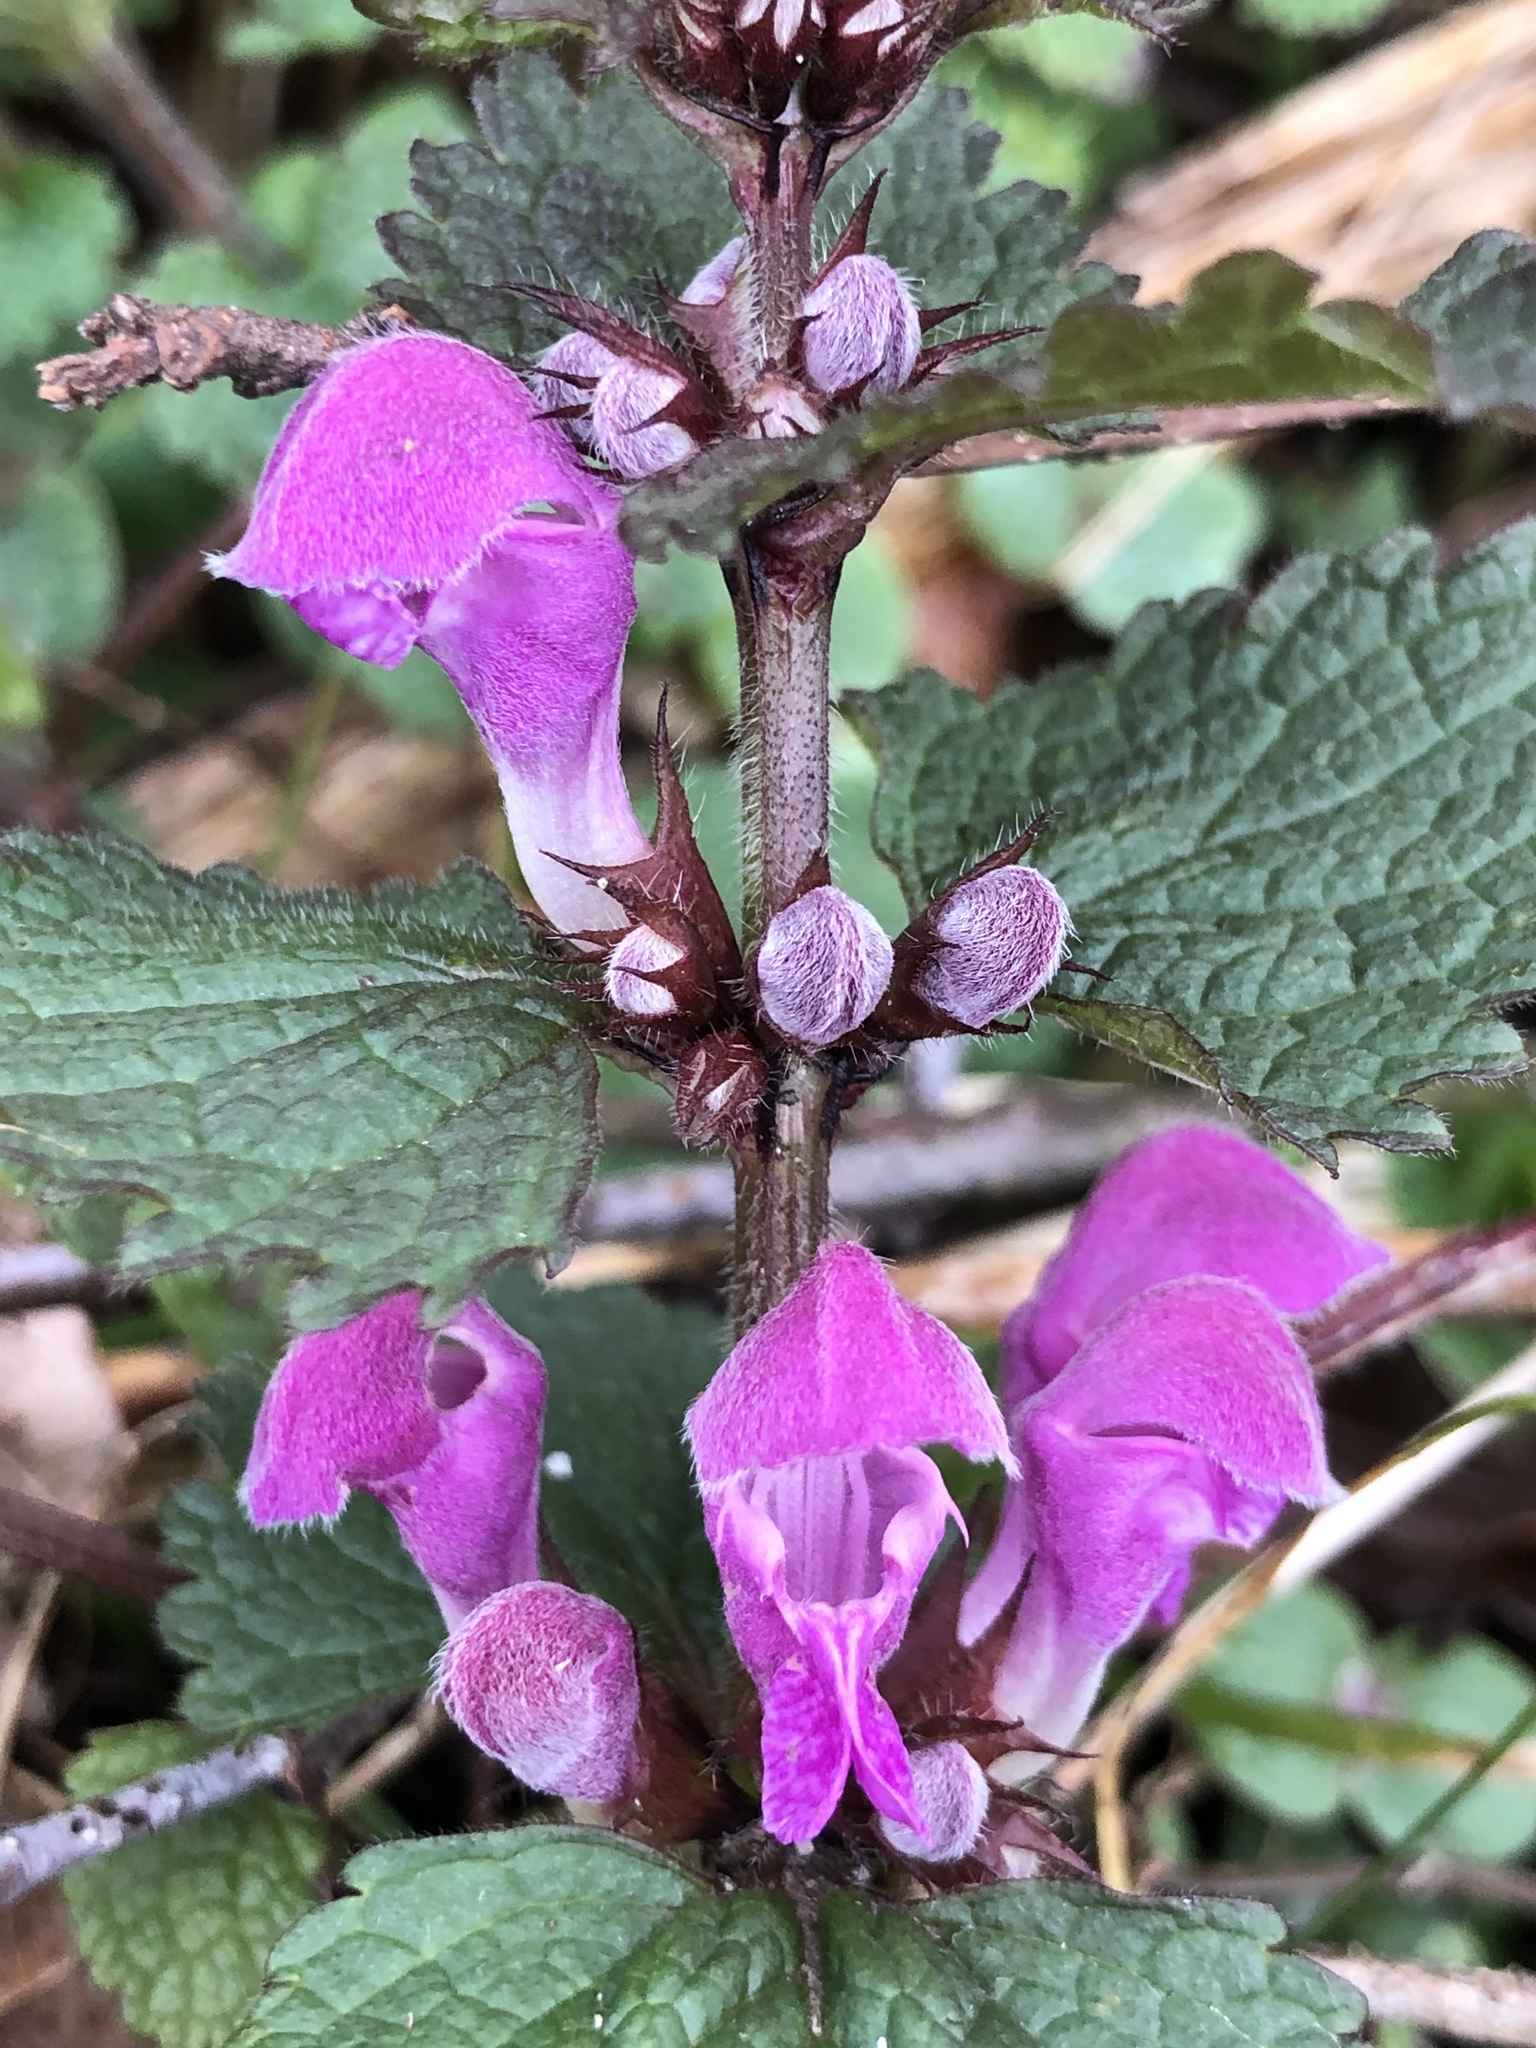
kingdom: Plantae
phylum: Tracheophyta
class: Magnoliopsida
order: Lamiales
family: Lamiaceae
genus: Lamium
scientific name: Lamium maculatum
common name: Spotted dead-nettle
